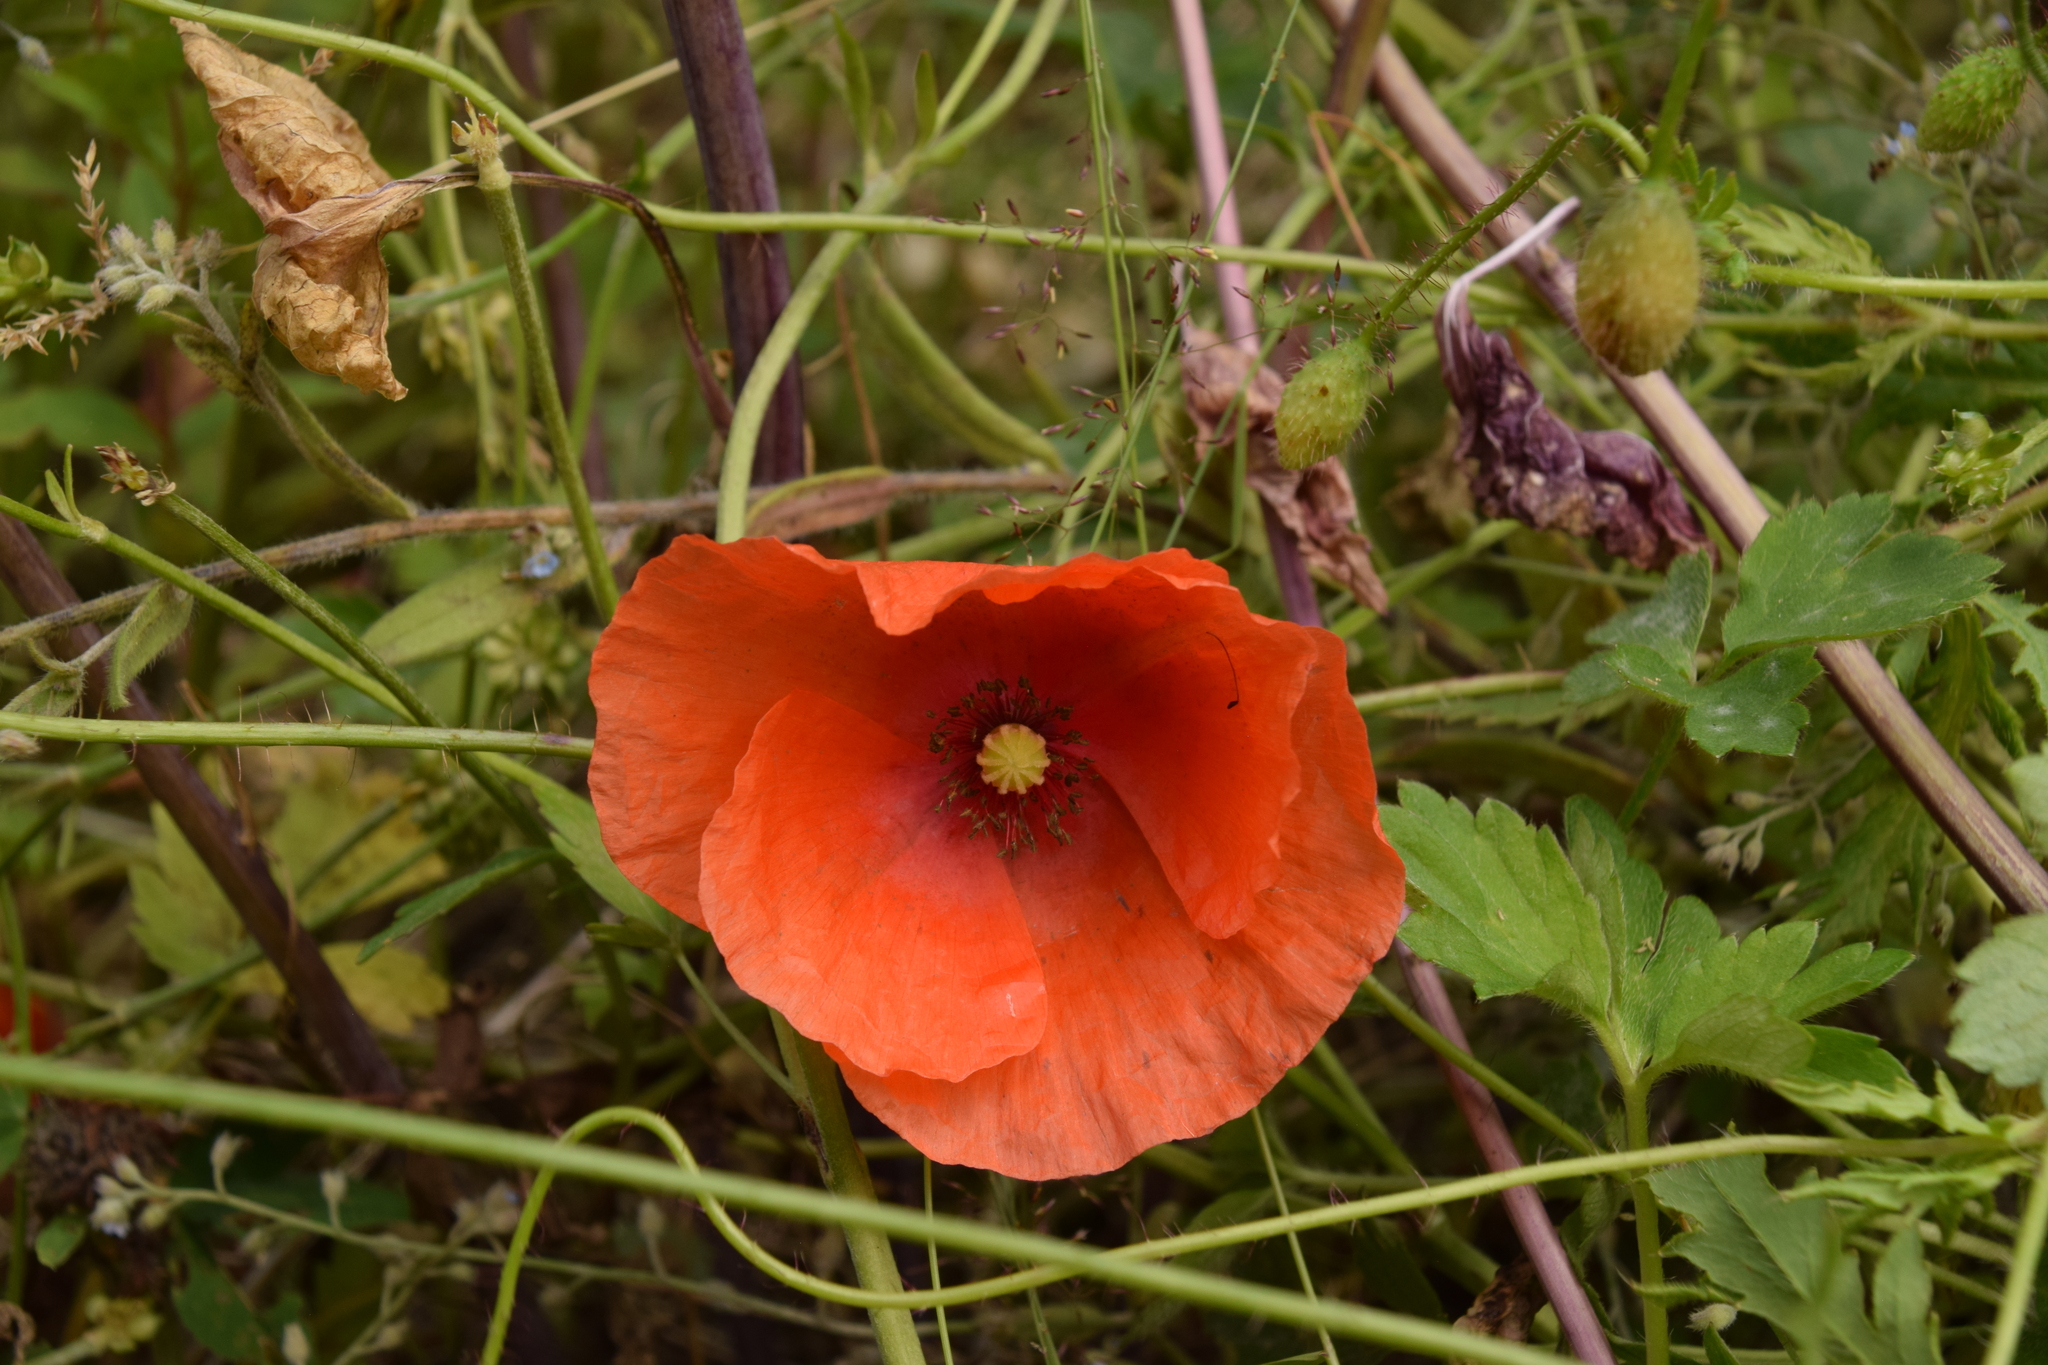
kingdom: Plantae
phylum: Tracheophyta
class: Magnoliopsida
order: Ranunculales
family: Papaveraceae
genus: Papaver
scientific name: Papaver rhoeas
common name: Corn poppy
